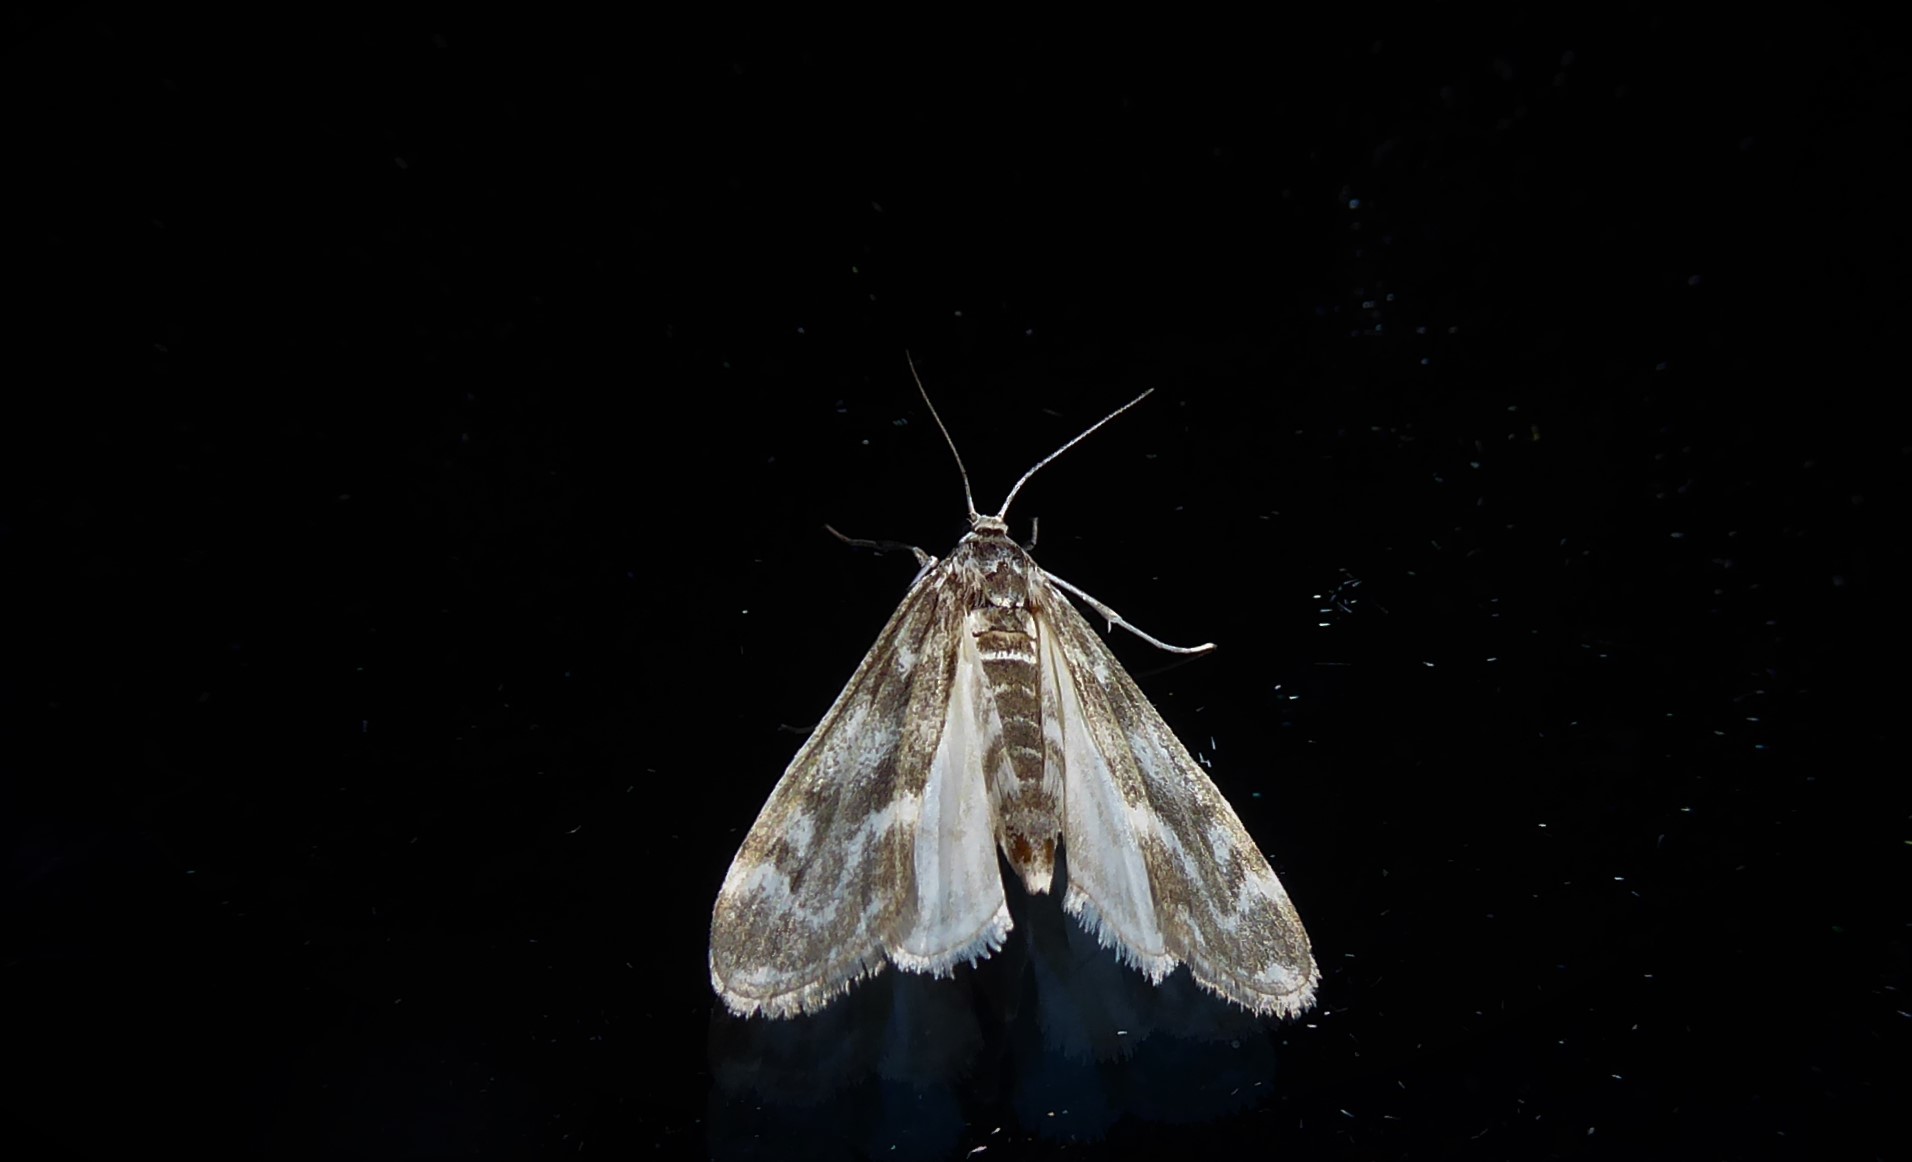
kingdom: Animalia
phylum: Arthropoda
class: Insecta
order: Lepidoptera
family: Crambidae
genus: Hygraula
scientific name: Hygraula nitens
